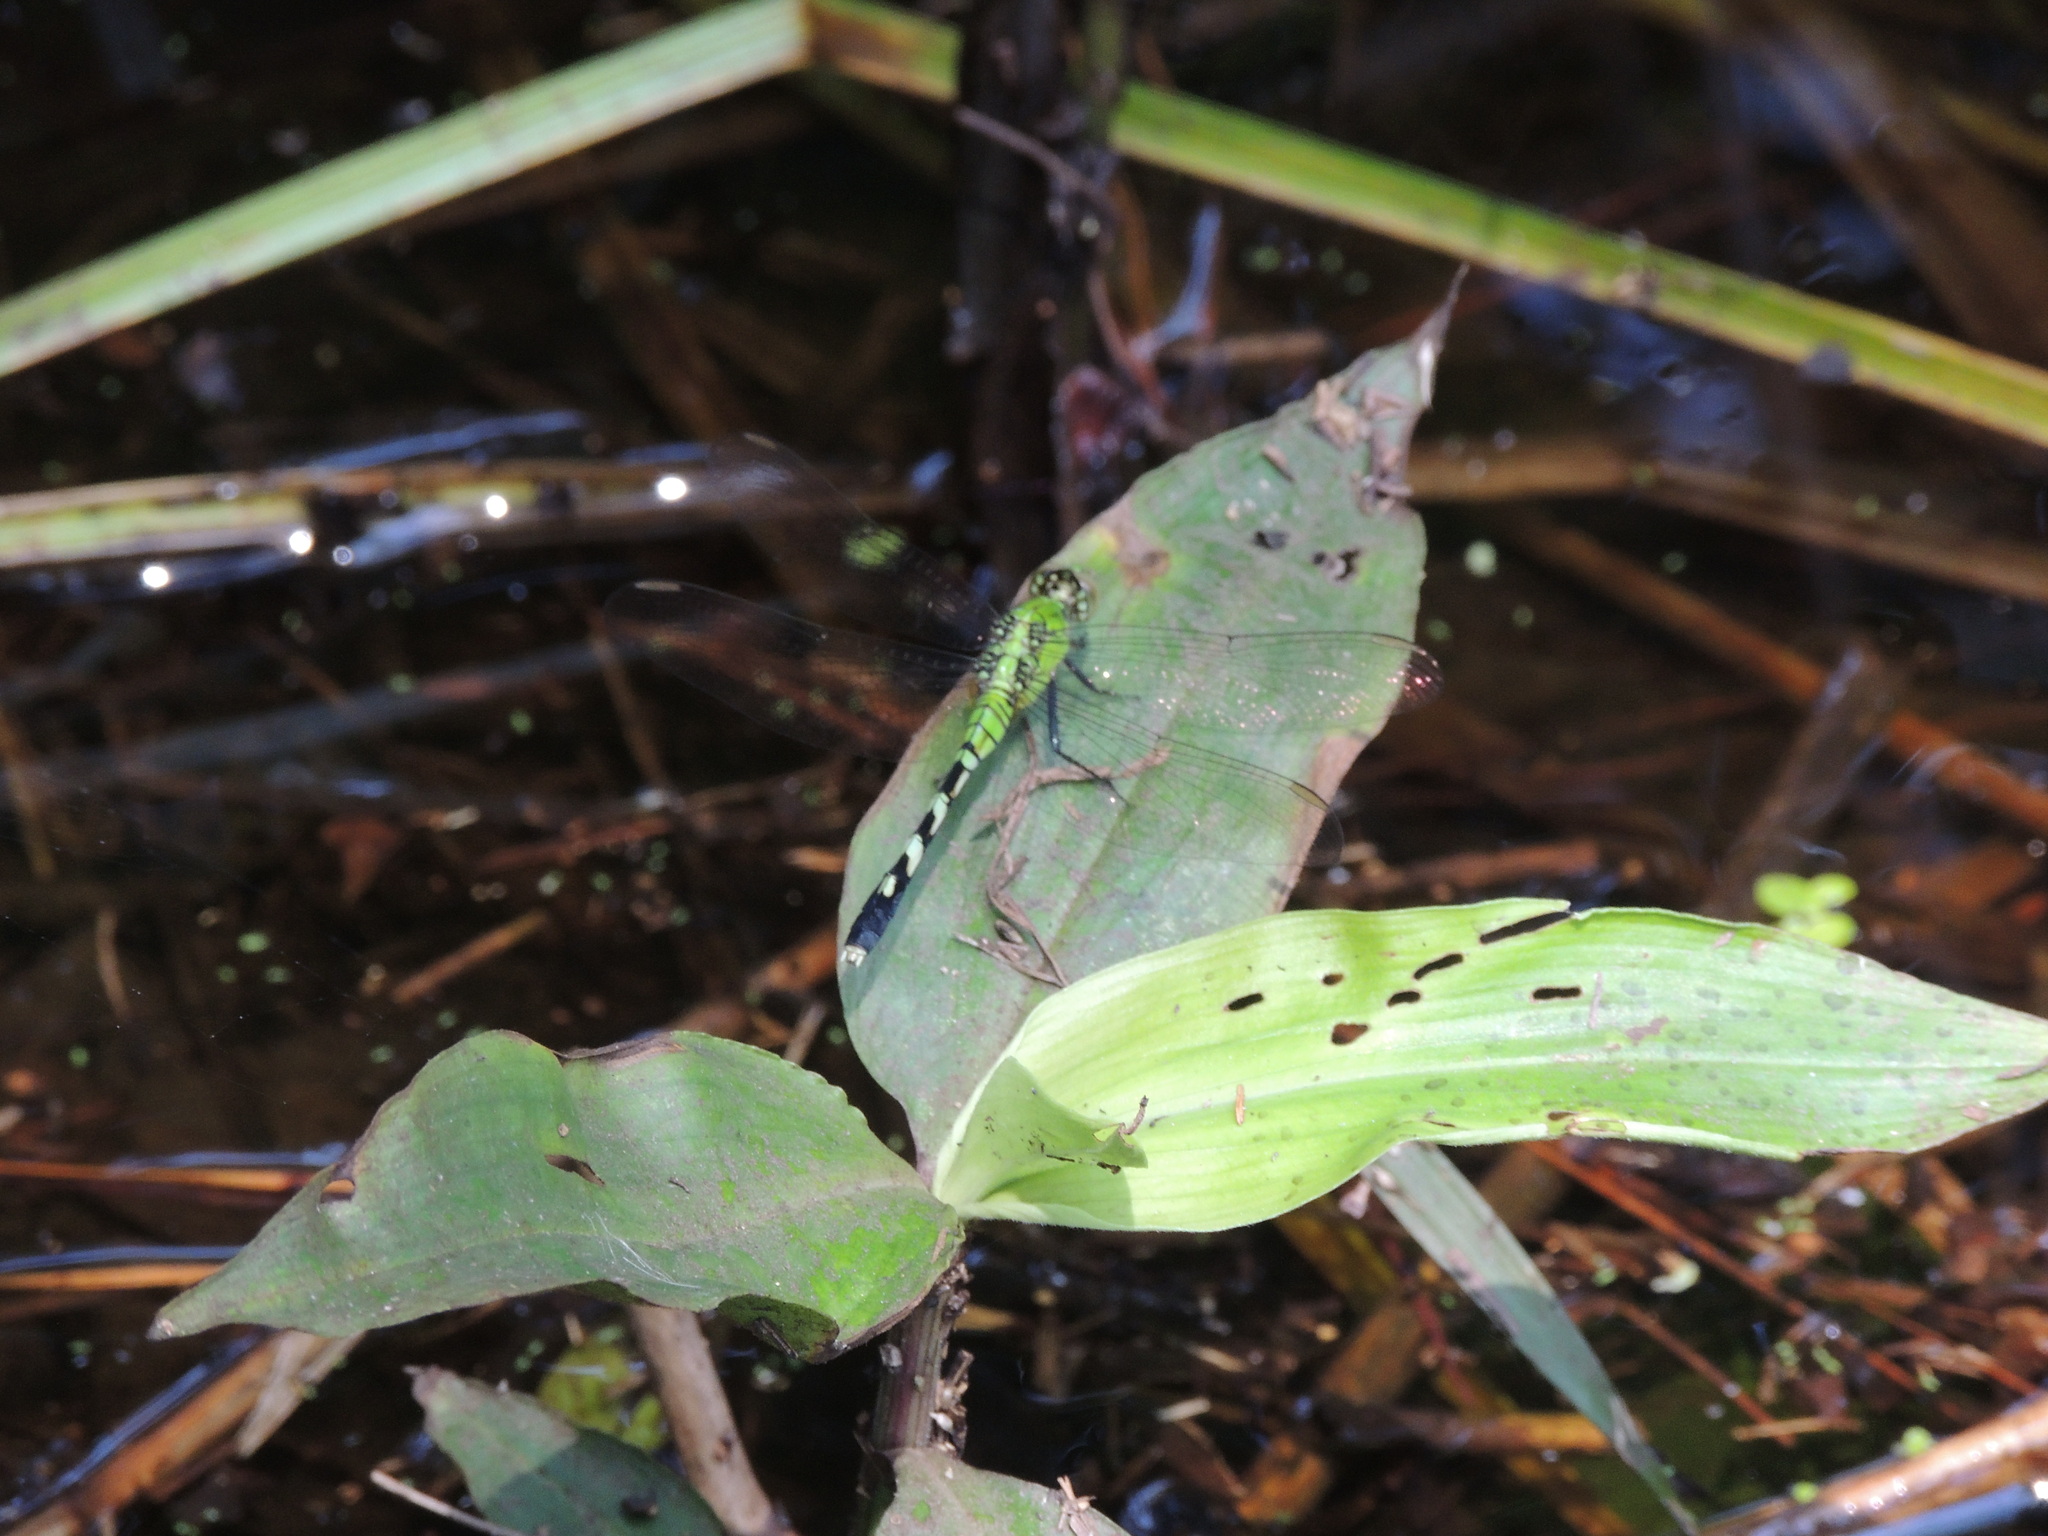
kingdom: Animalia
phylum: Arthropoda
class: Insecta
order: Odonata
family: Libellulidae
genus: Erythemis
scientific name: Erythemis simplicicollis
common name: Eastern pondhawk
